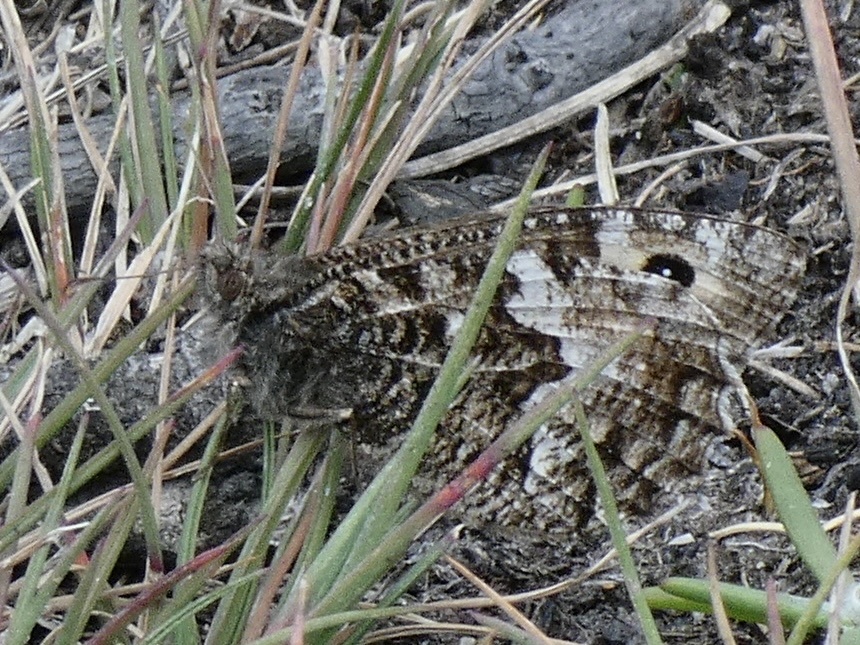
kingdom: Animalia
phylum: Arthropoda
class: Insecta
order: Lepidoptera
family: Nymphalidae
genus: Hipparchia
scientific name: Hipparchia semele
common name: Grayling
